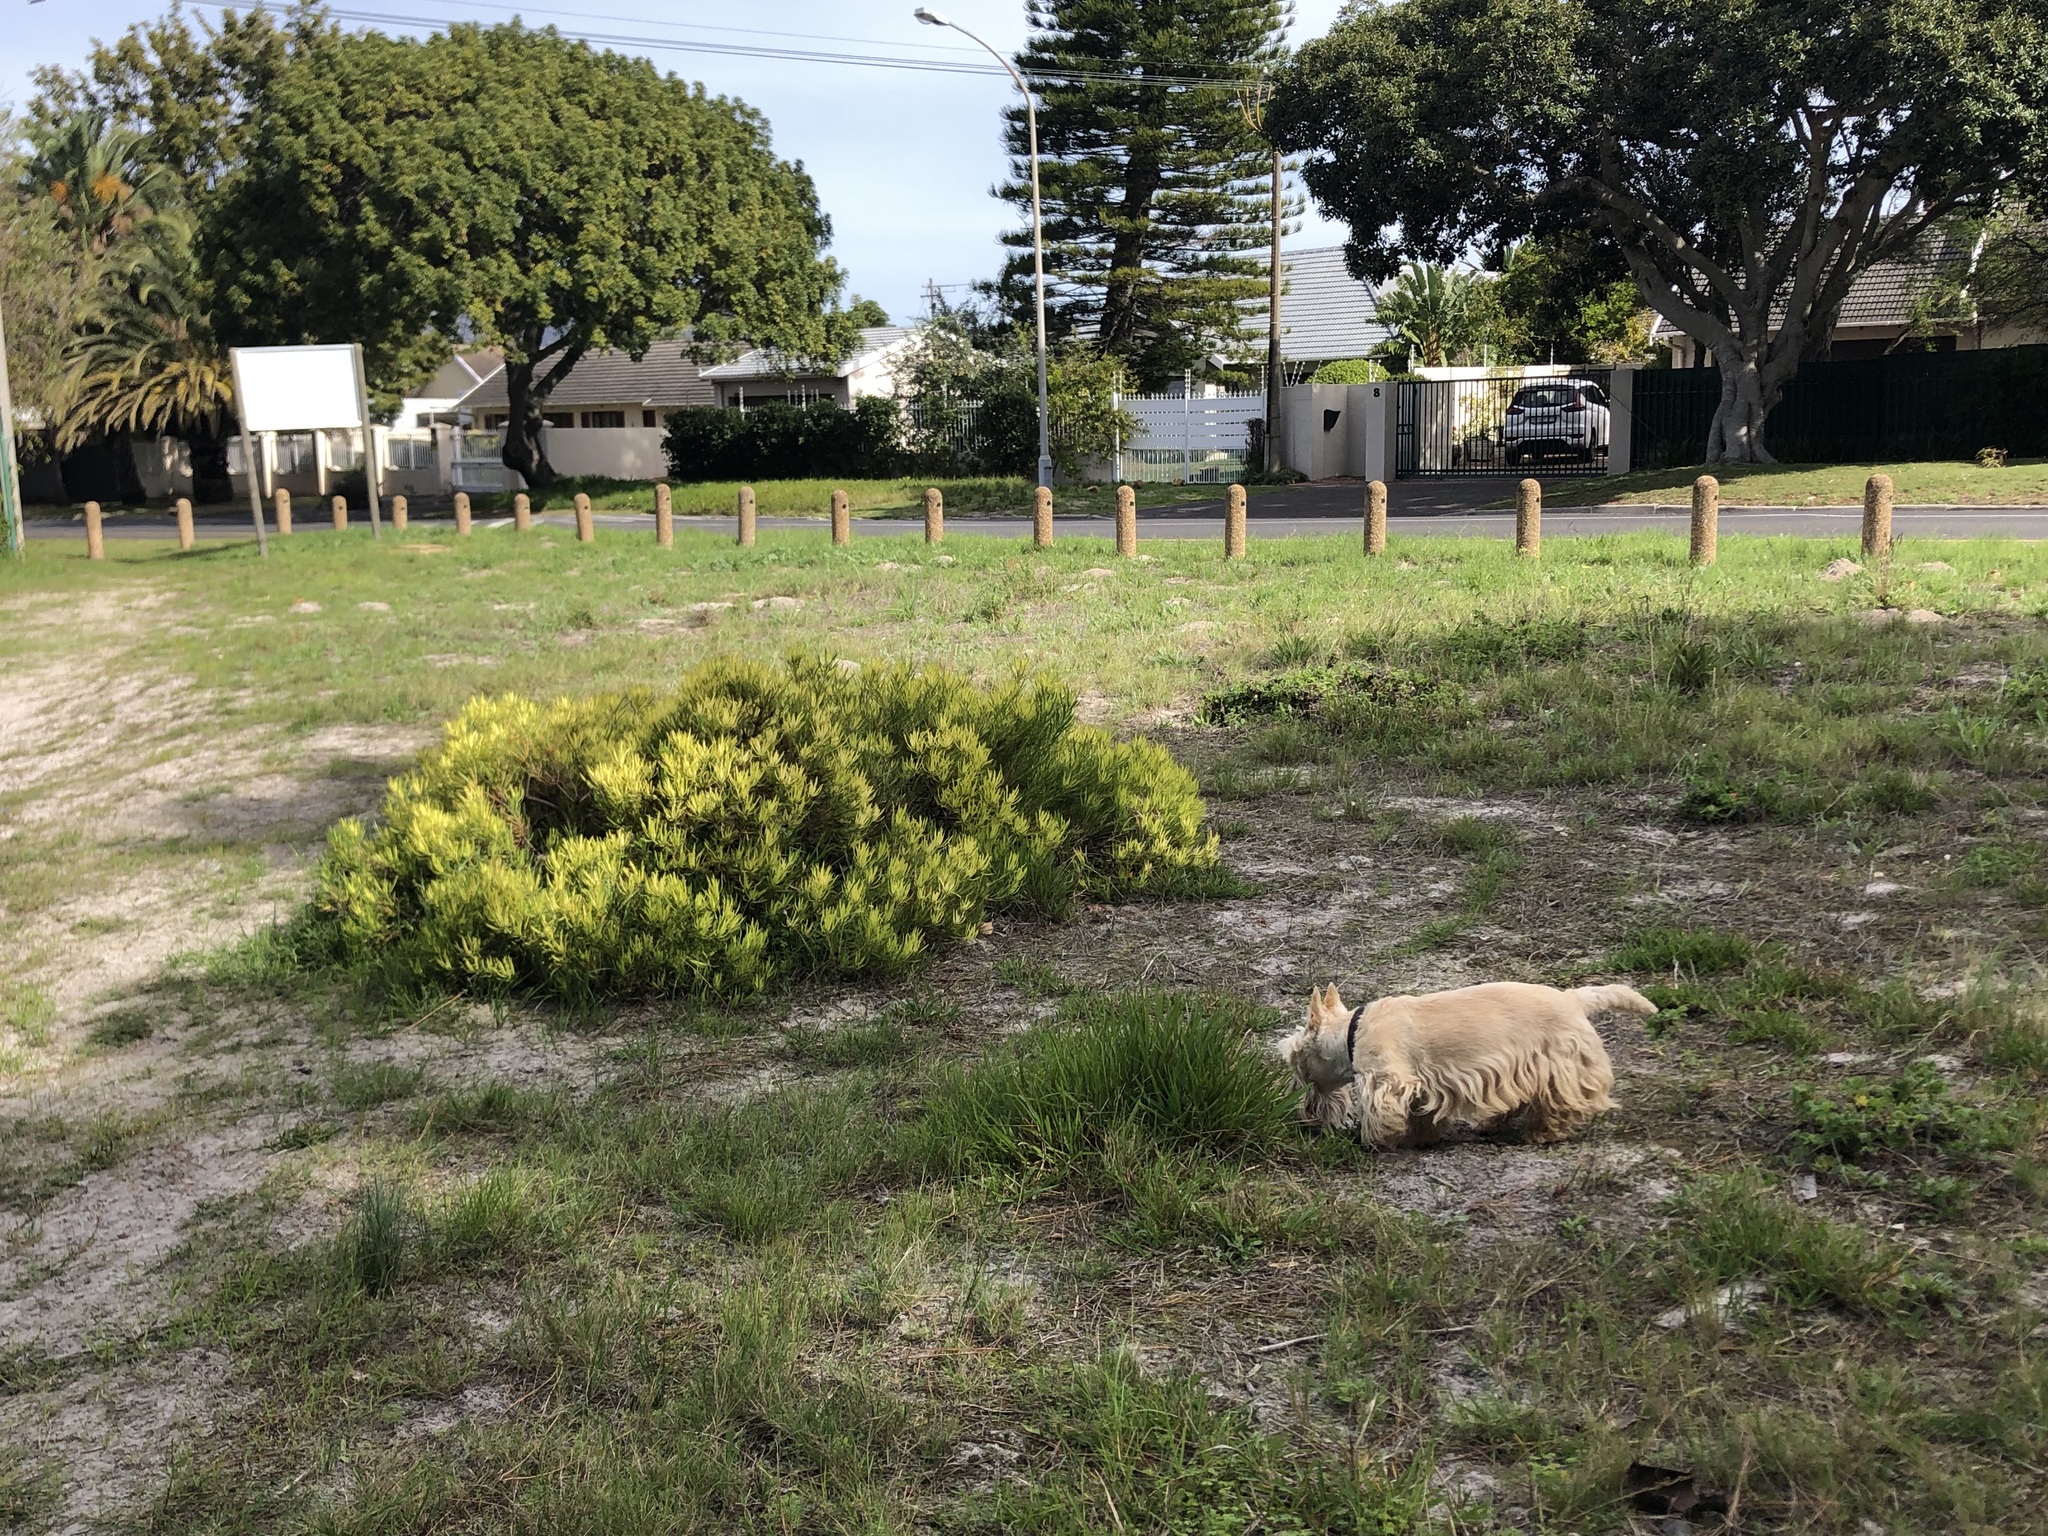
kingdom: Plantae
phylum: Tracheophyta
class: Magnoliopsida
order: Proteales
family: Proteaceae
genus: Leucadendron
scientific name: Leucadendron salignum
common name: Common sunshine conebush
